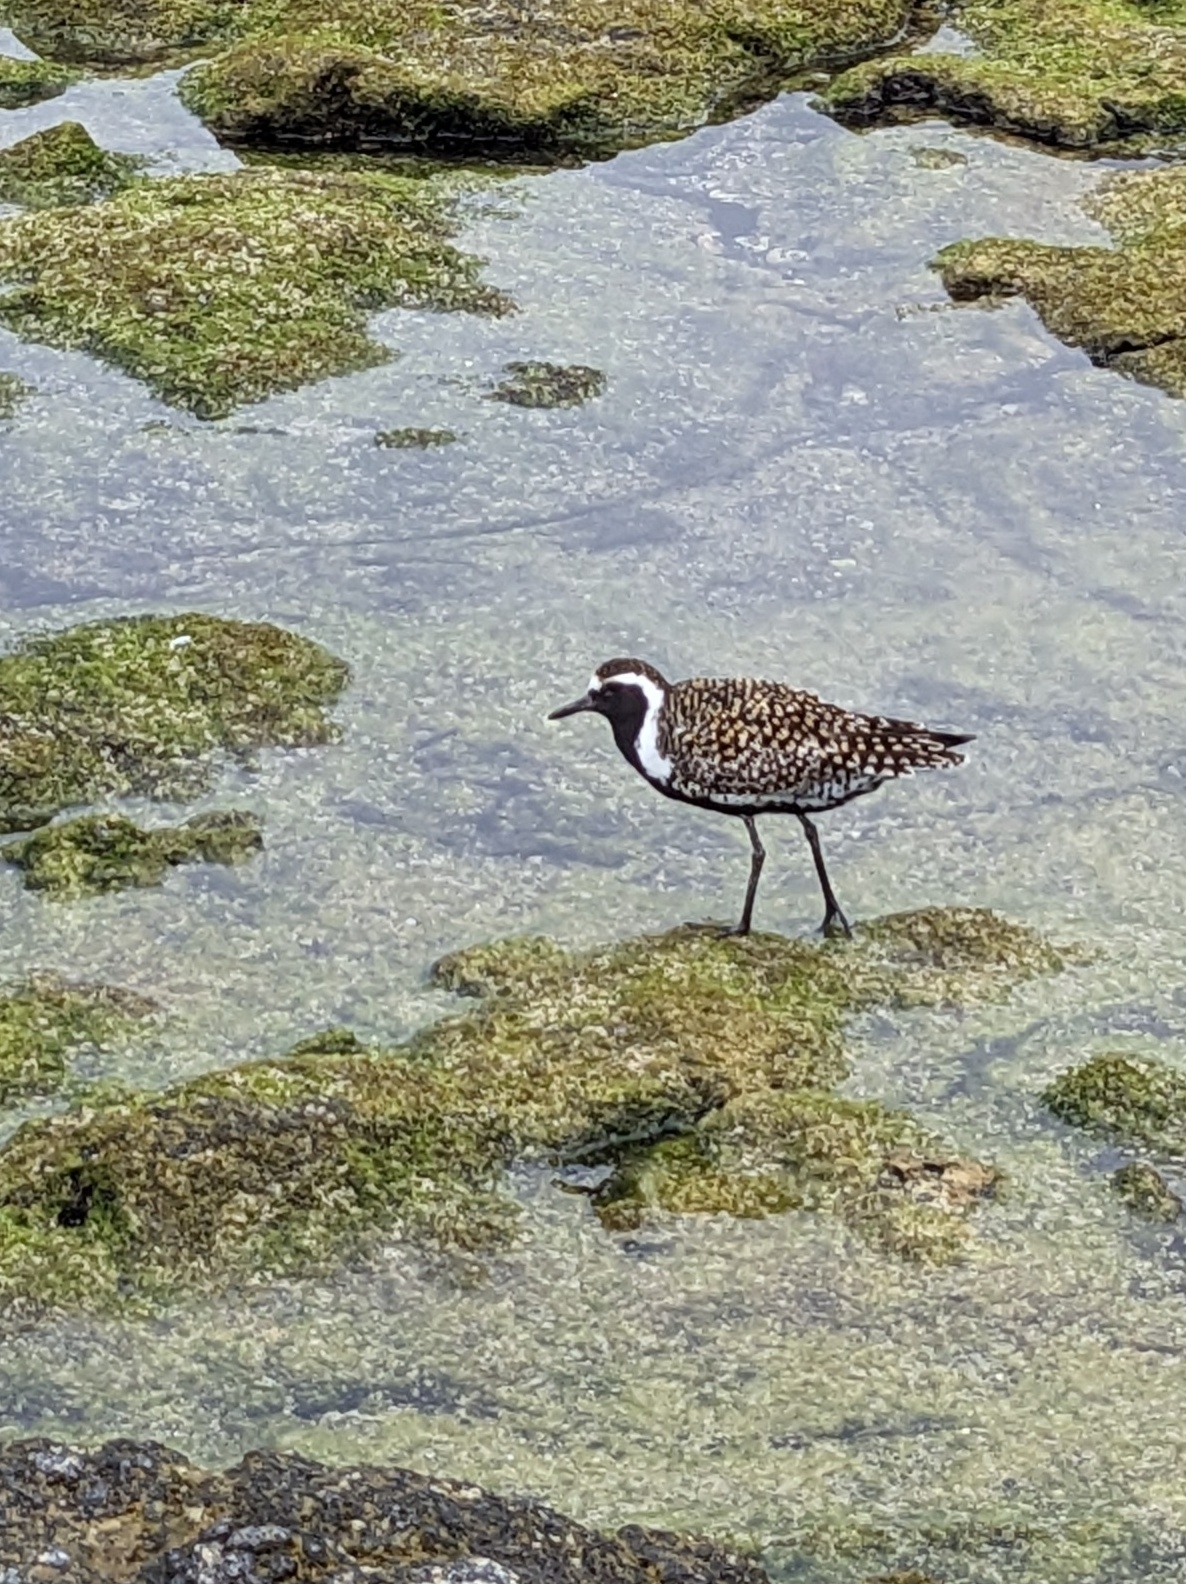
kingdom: Animalia
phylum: Chordata
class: Aves
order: Charadriiformes
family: Charadriidae
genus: Pluvialis
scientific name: Pluvialis fulva
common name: Pacific golden plover
